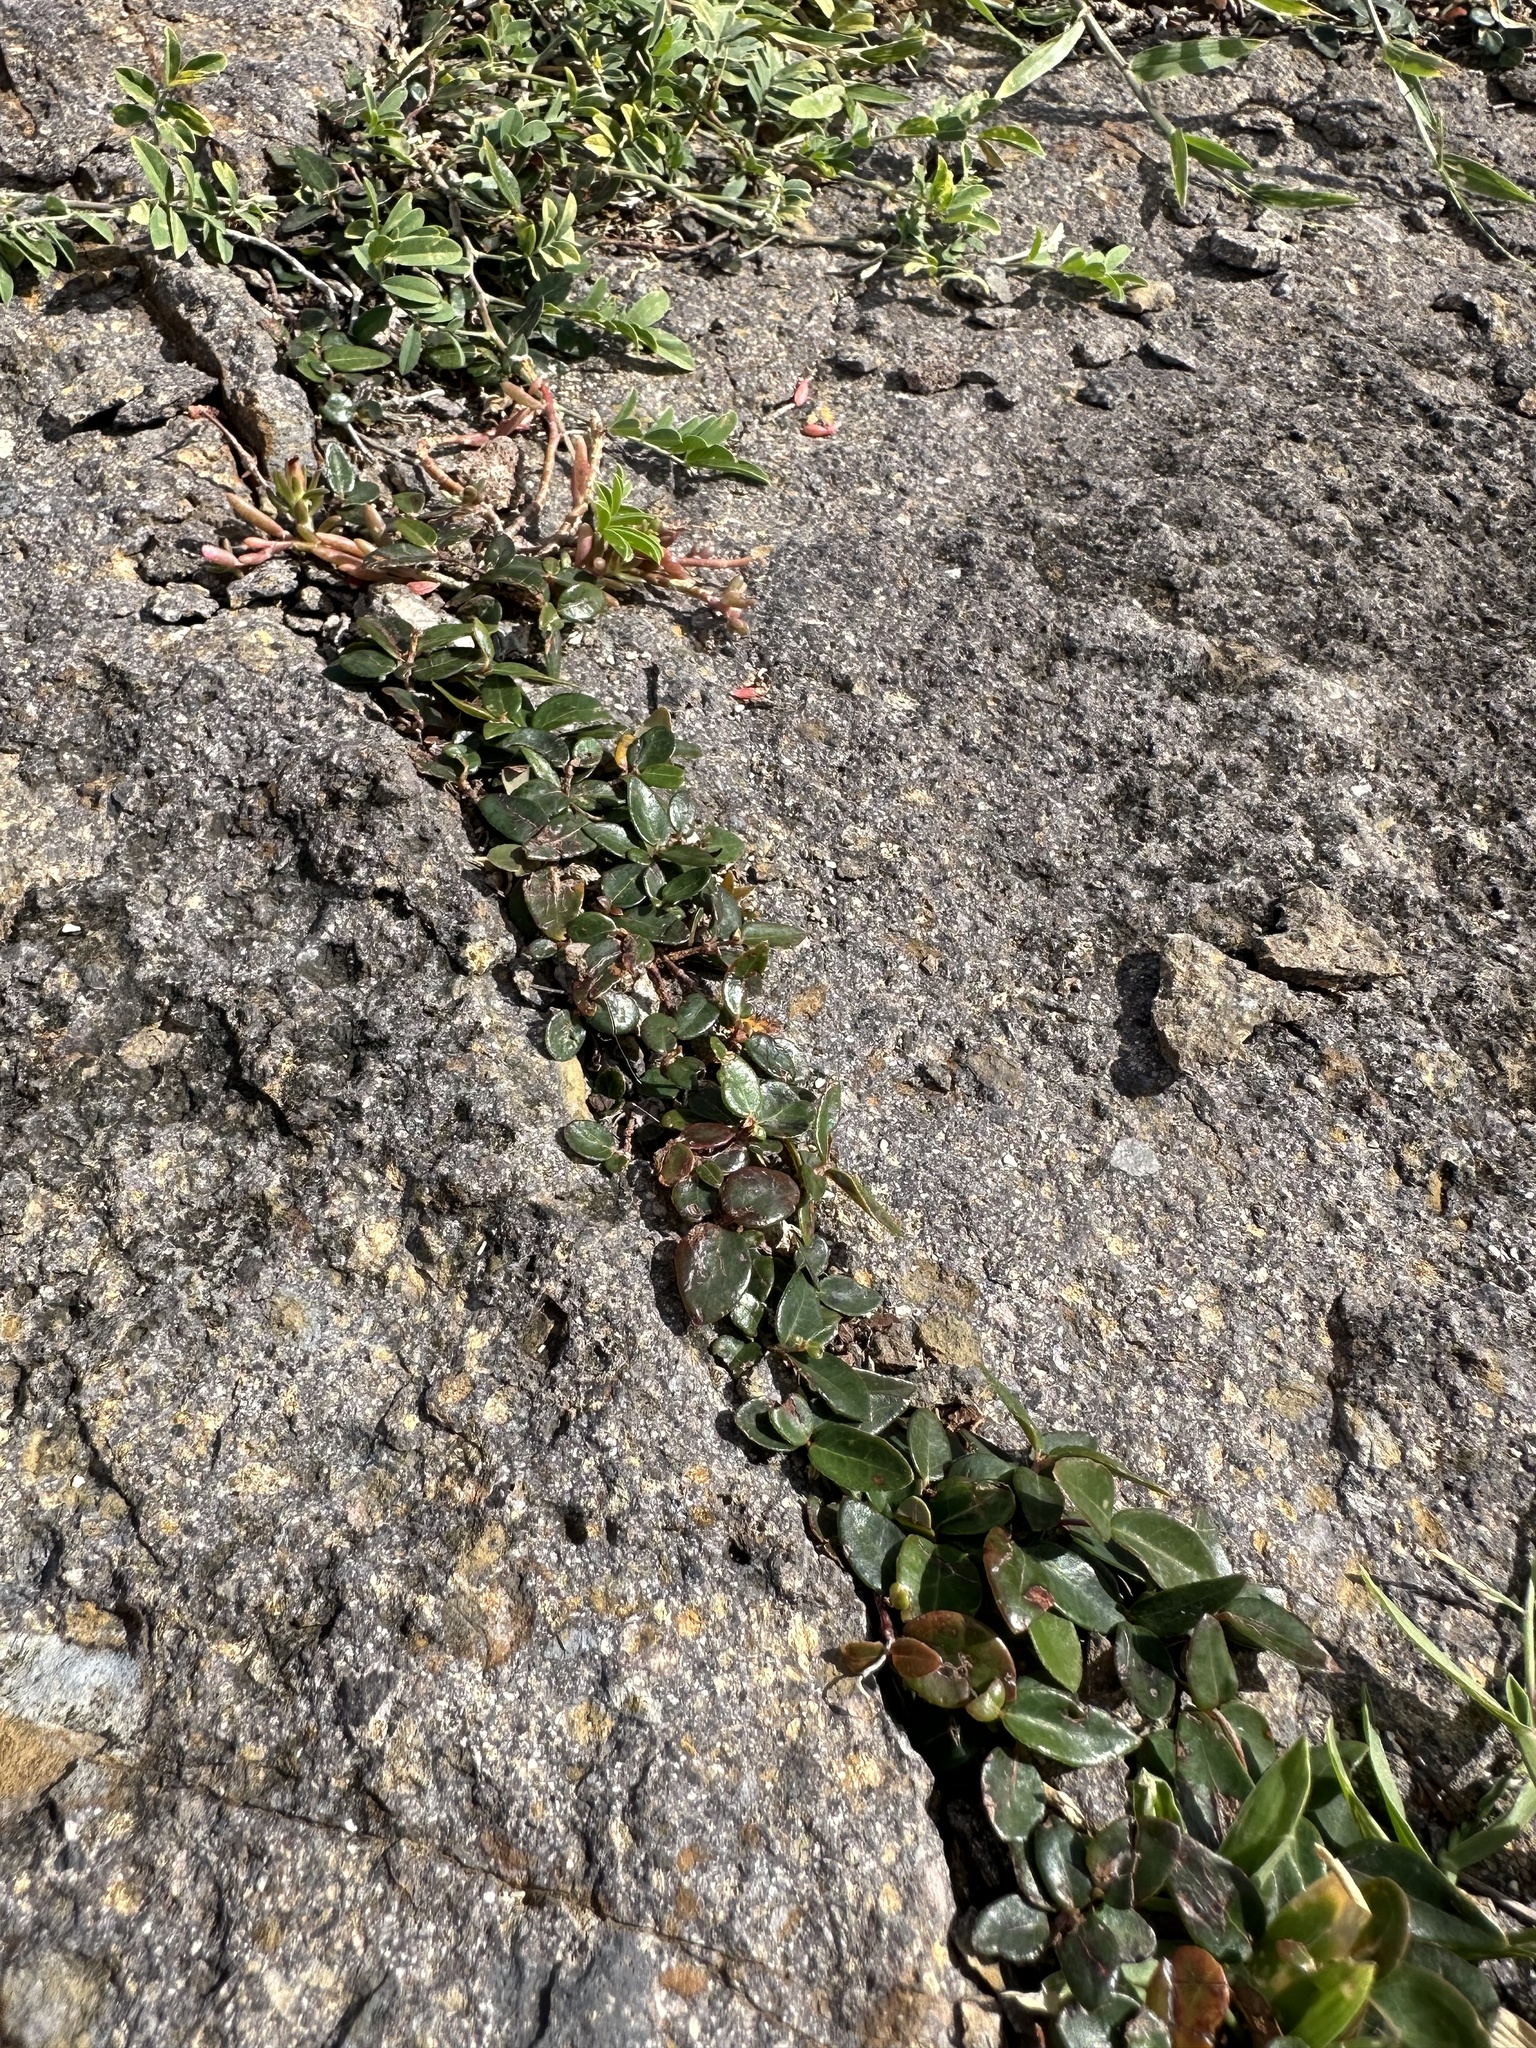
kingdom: Plantae
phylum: Tracheophyta
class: Magnoliopsida
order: Caryophyllales
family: Amaranthaceae
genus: Alternanthera
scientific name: Alternanthera geniculata
